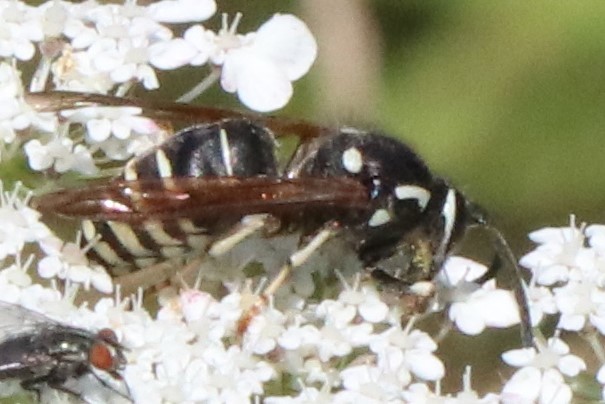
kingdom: Animalia
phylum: Arthropoda
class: Insecta
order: Hymenoptera
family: Vespidae
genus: Dolichovespula
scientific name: Dolichovespula adulterina
